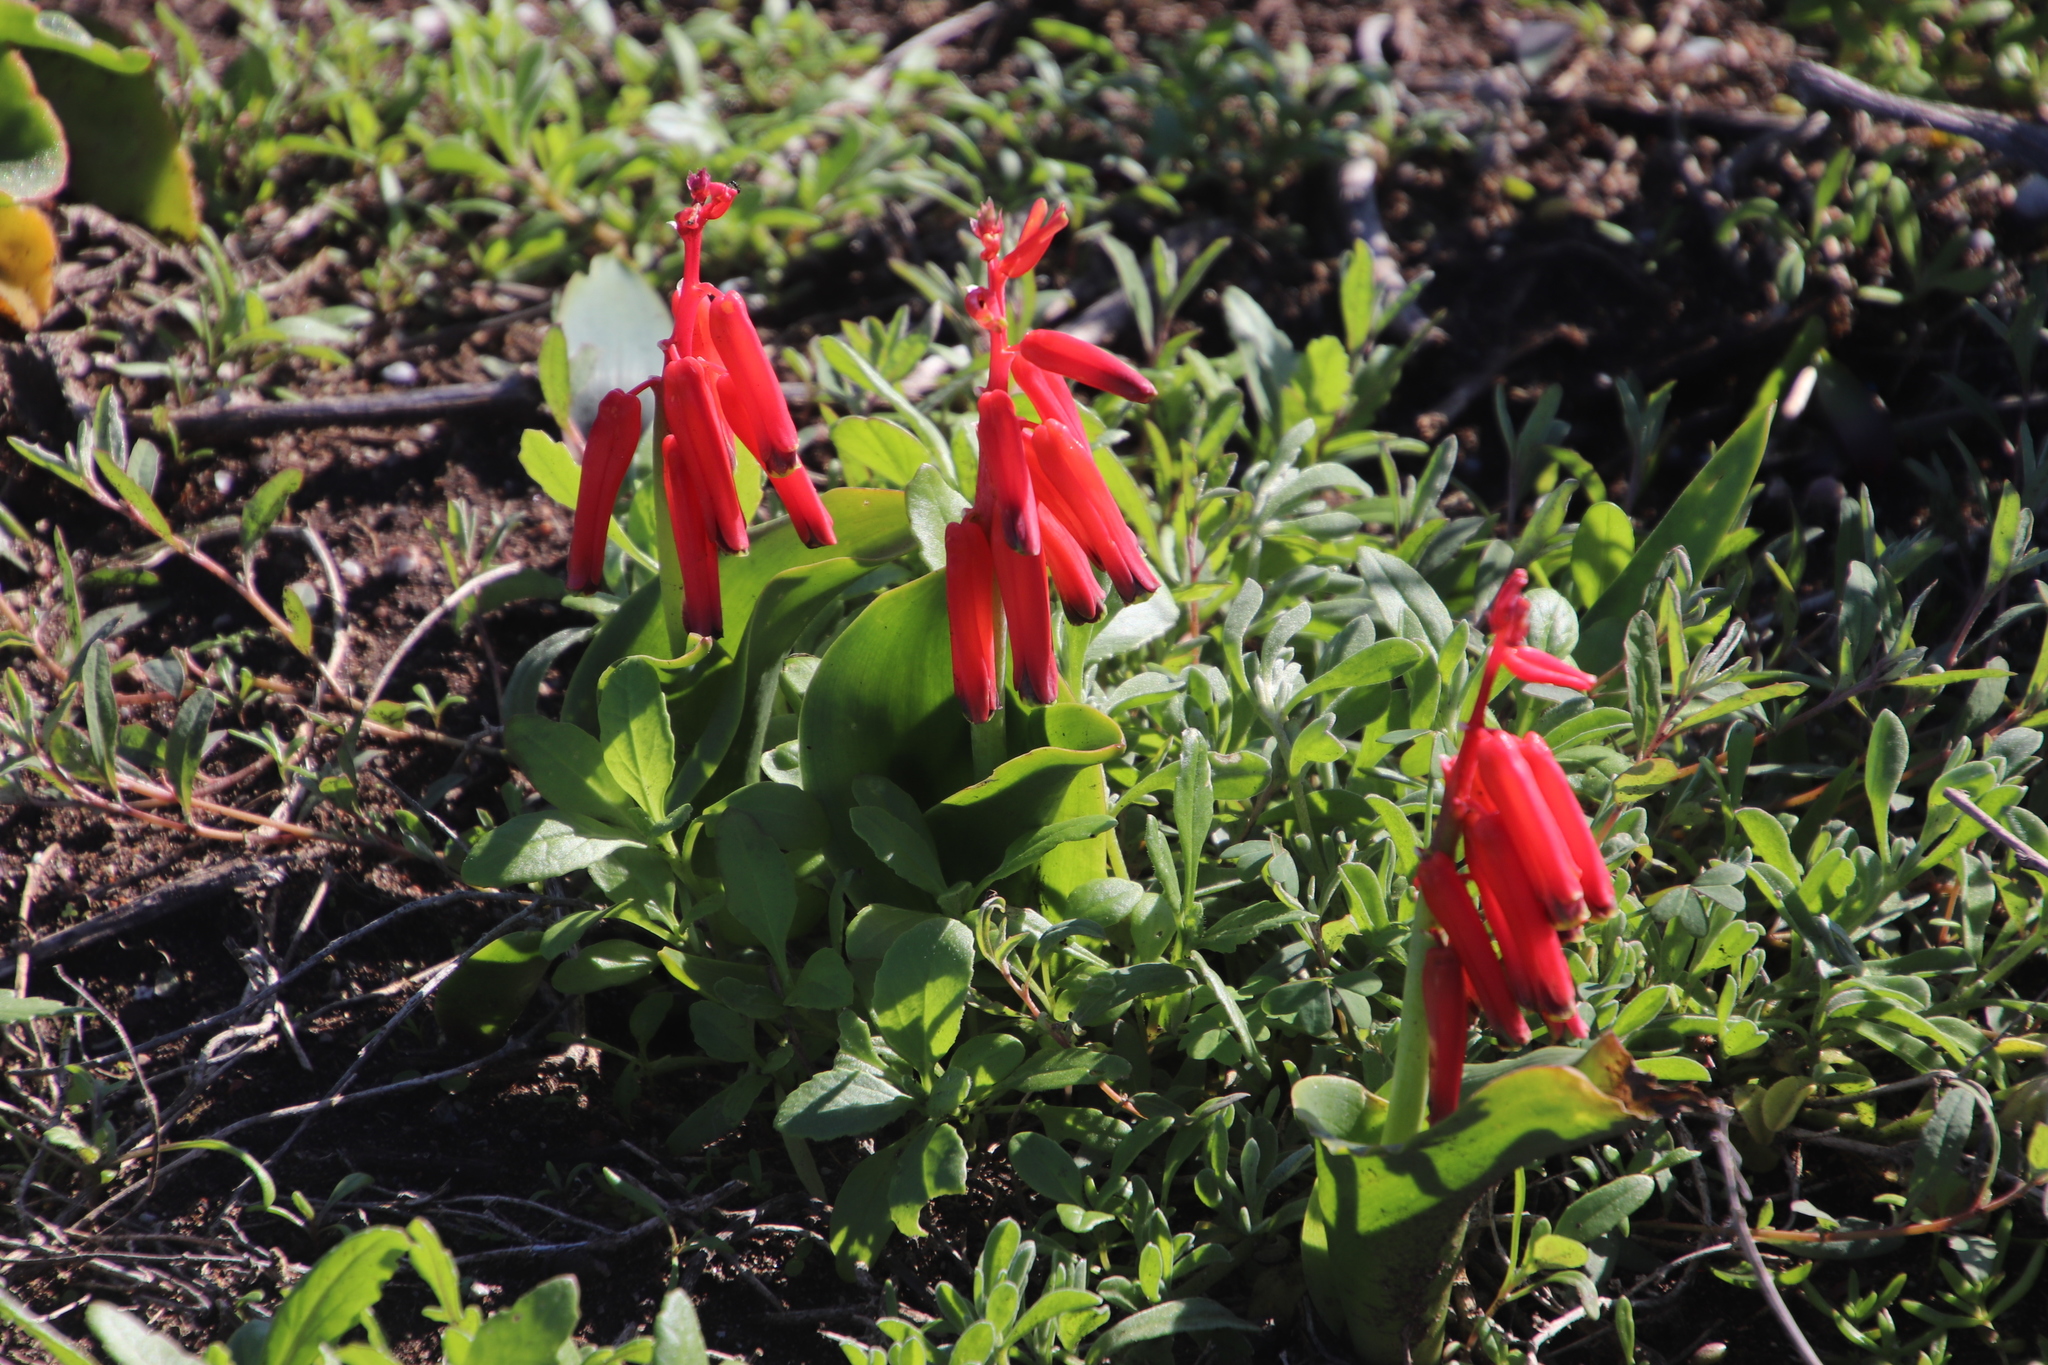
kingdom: Plantae
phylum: Tracheophyta
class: Liliopsida
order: Asparagales
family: Asparagaceae
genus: Lachenalia
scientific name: Lachenalia bulbifera
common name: Red lachenalia
